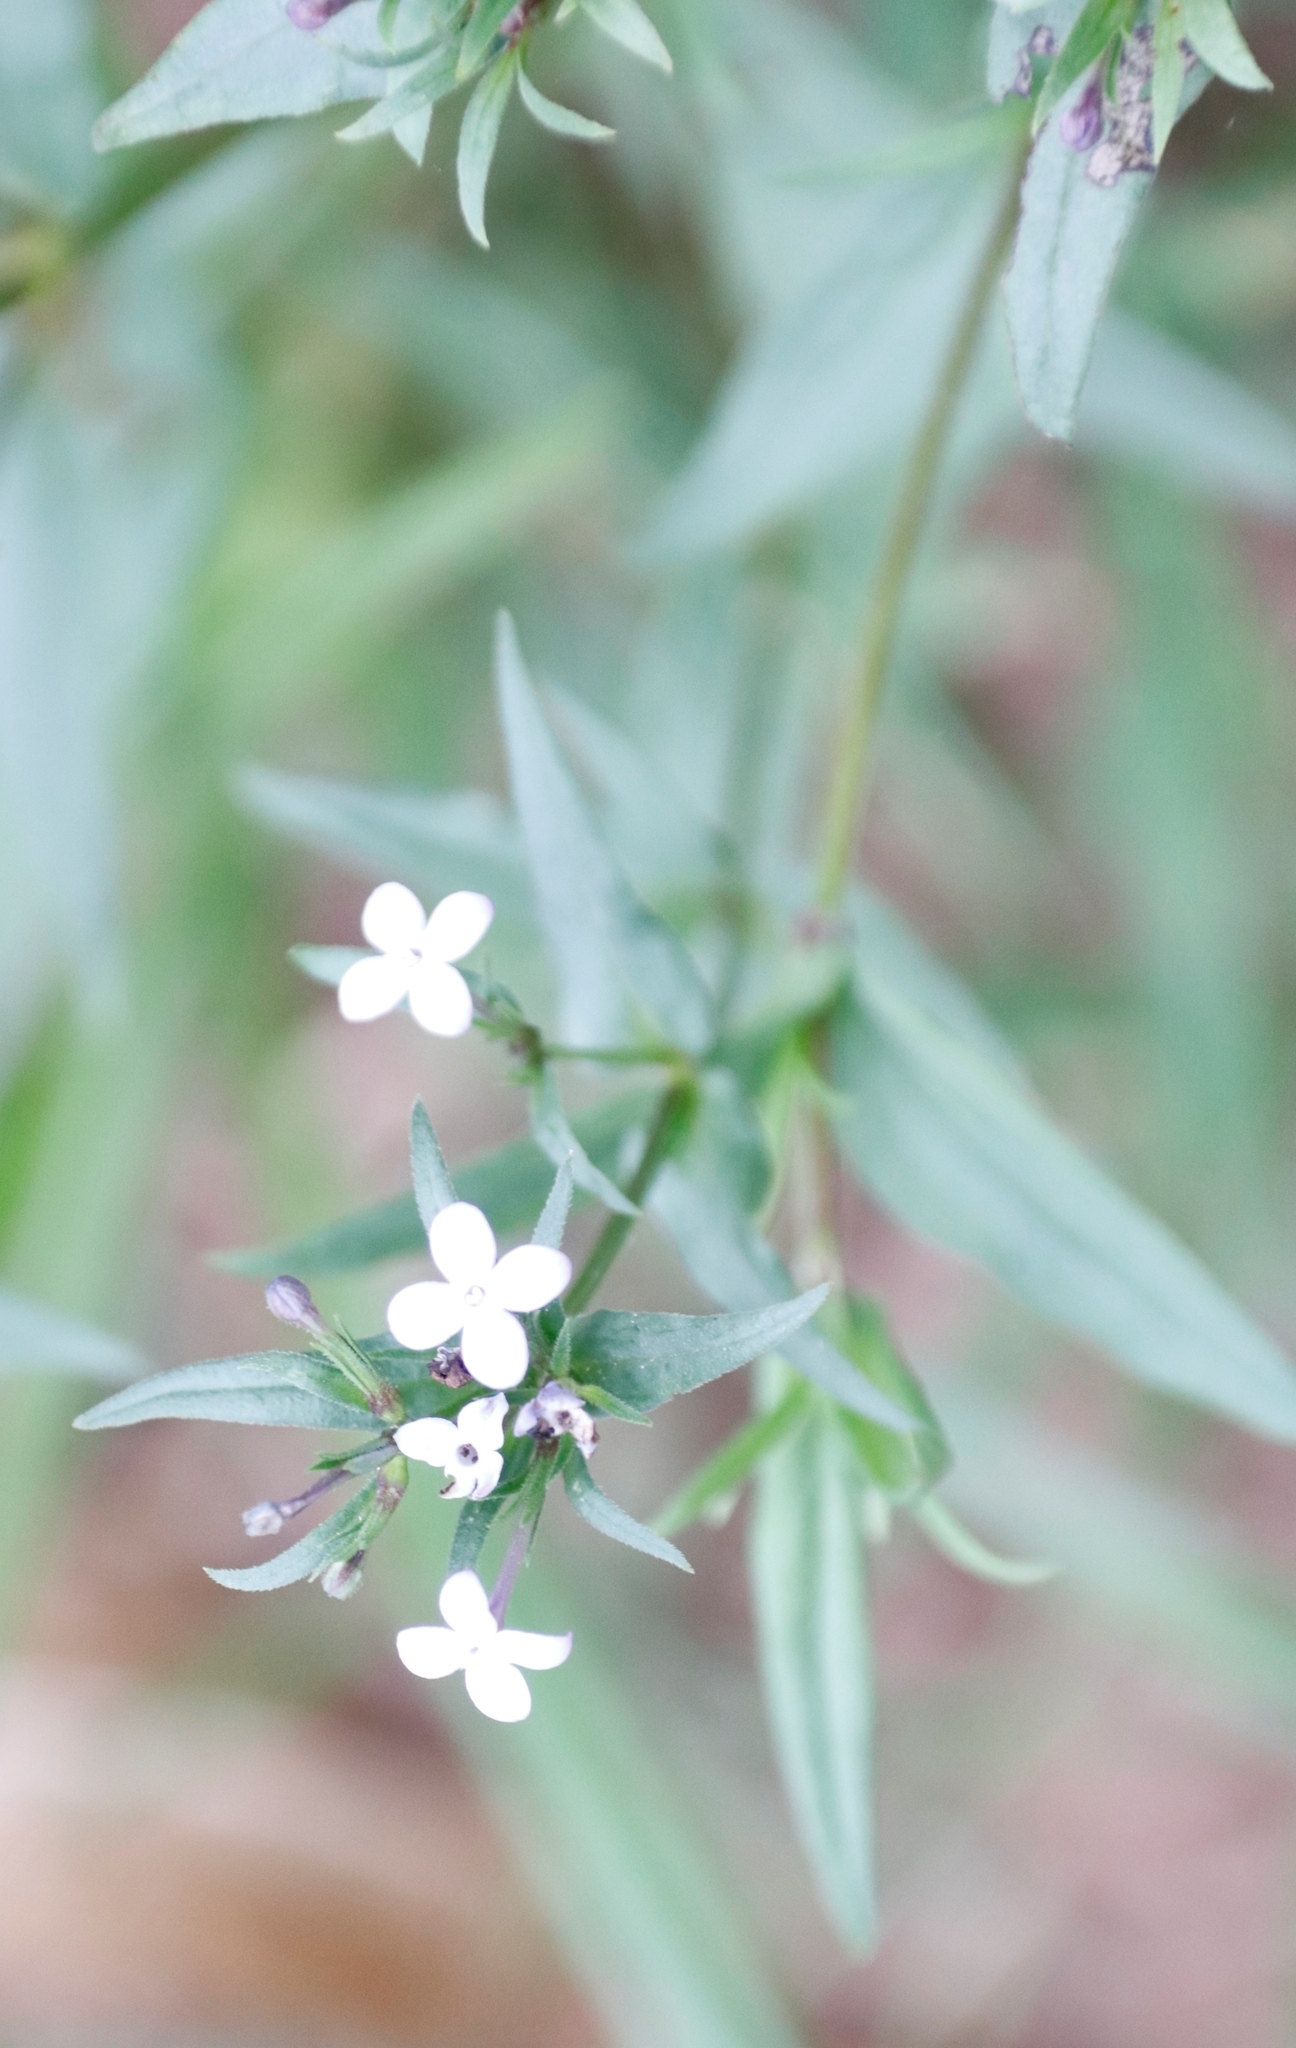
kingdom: Plantae
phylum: Tracheophyta
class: Magnoliopsida
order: Gentianales
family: Rubiaceae
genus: Conostomium
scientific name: Conostomium natalense
